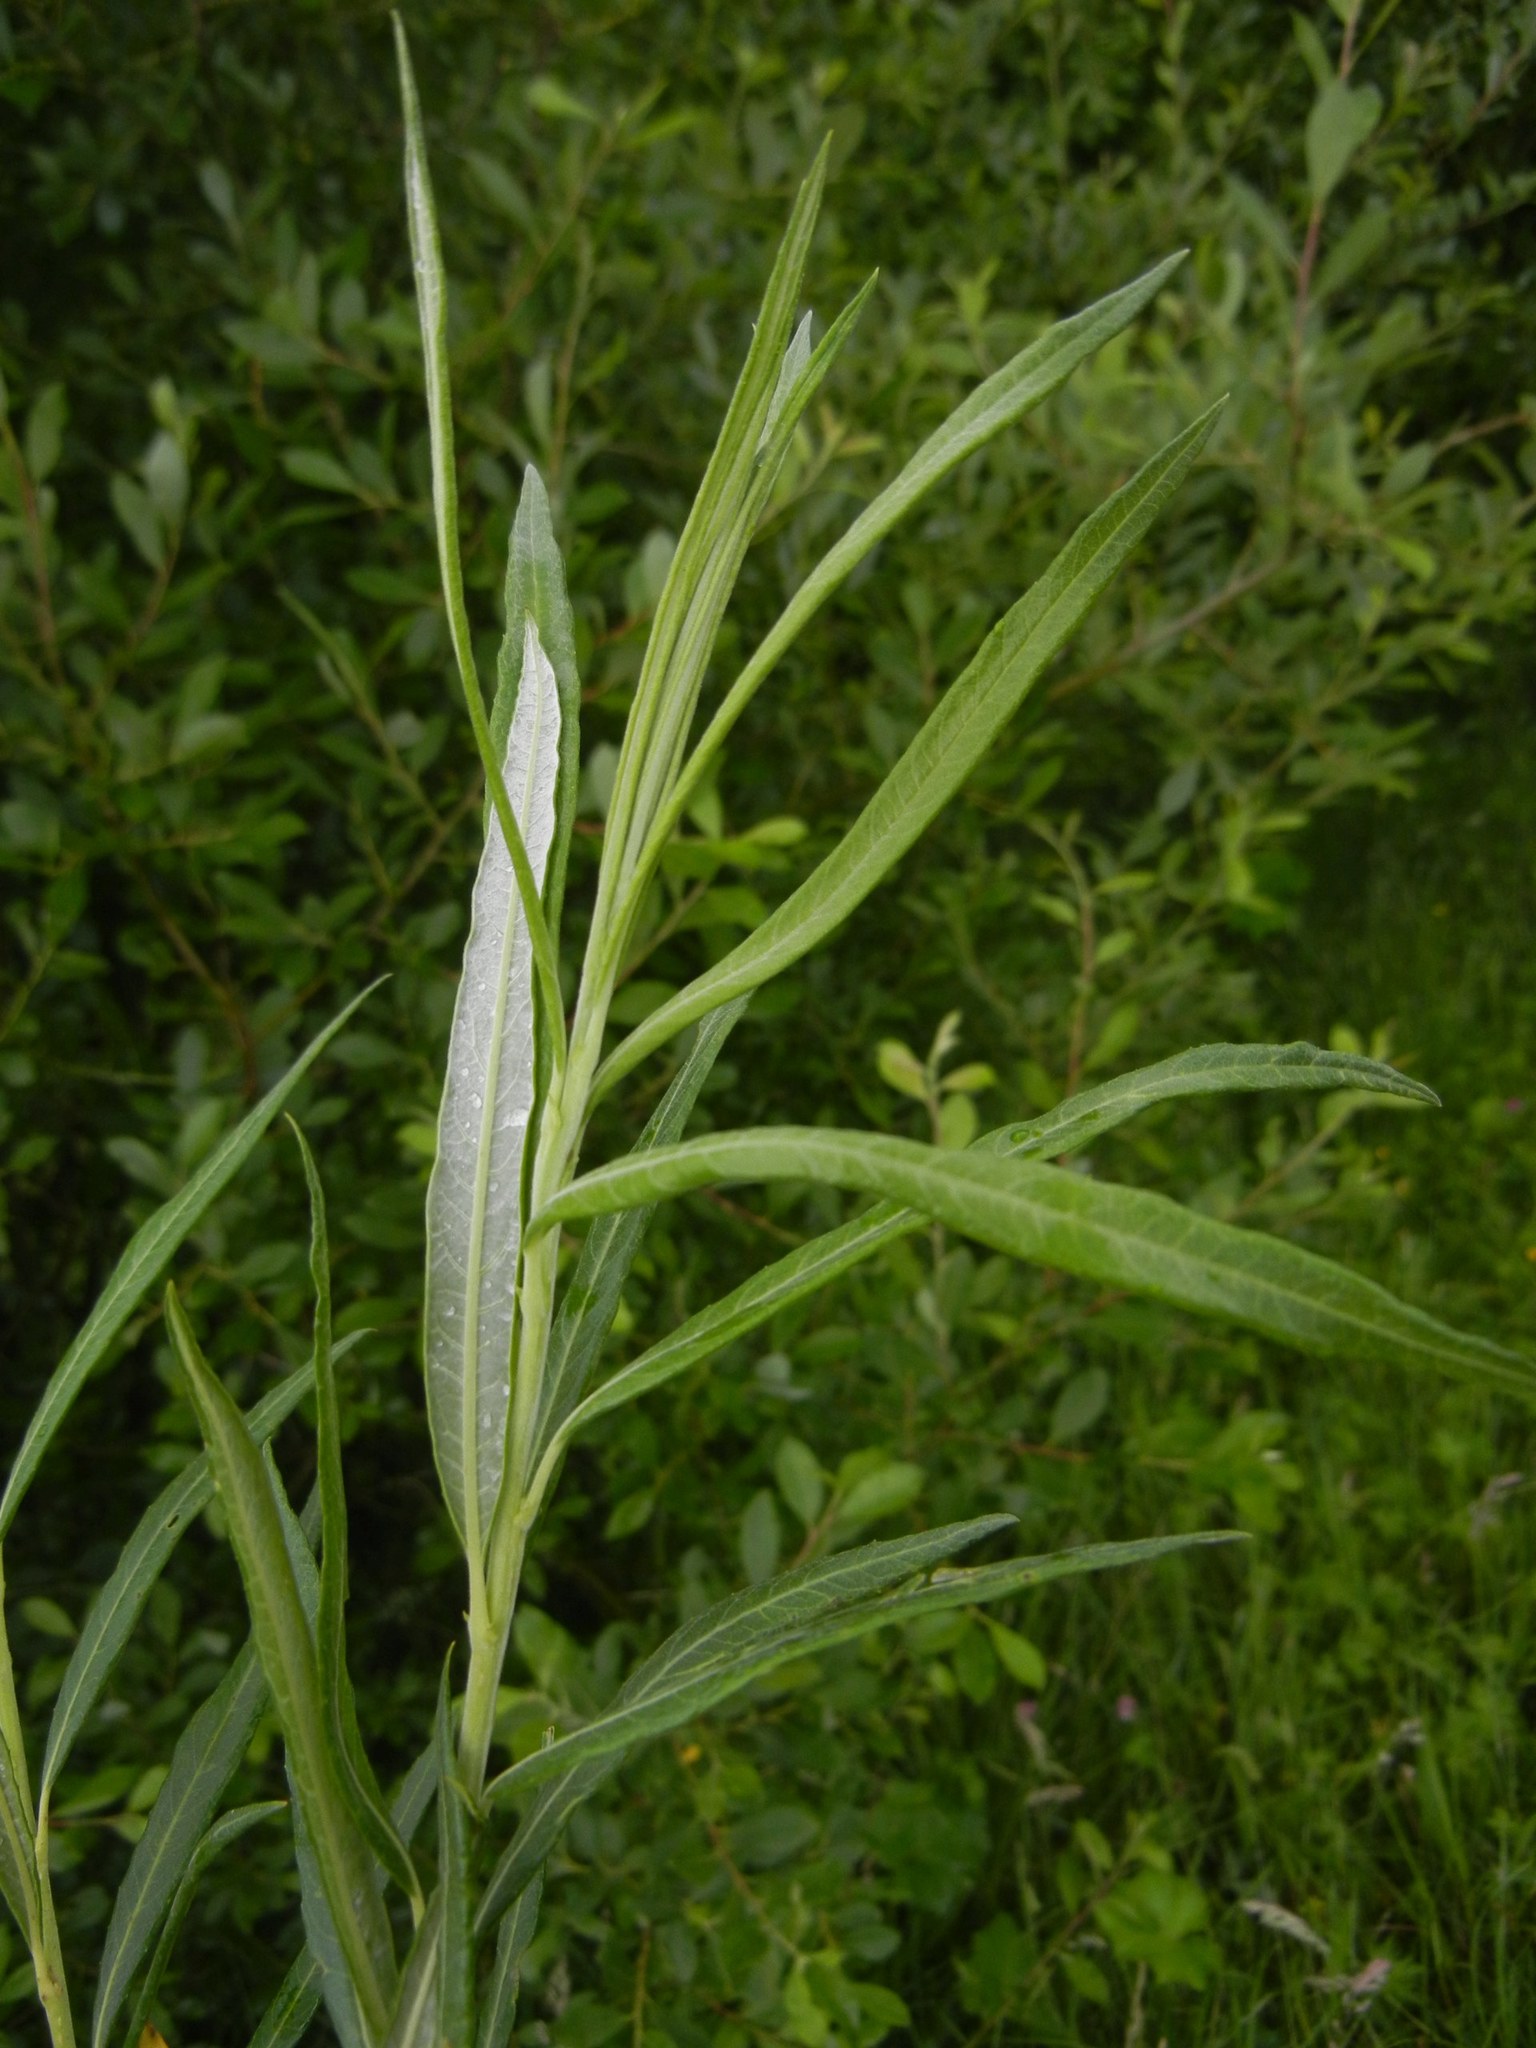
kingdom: Plantae
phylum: Tracheophyta
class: Magnoliopsida
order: Malpighiales
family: Salicaceae
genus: Salix
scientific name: Salix viminalis
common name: Osier
